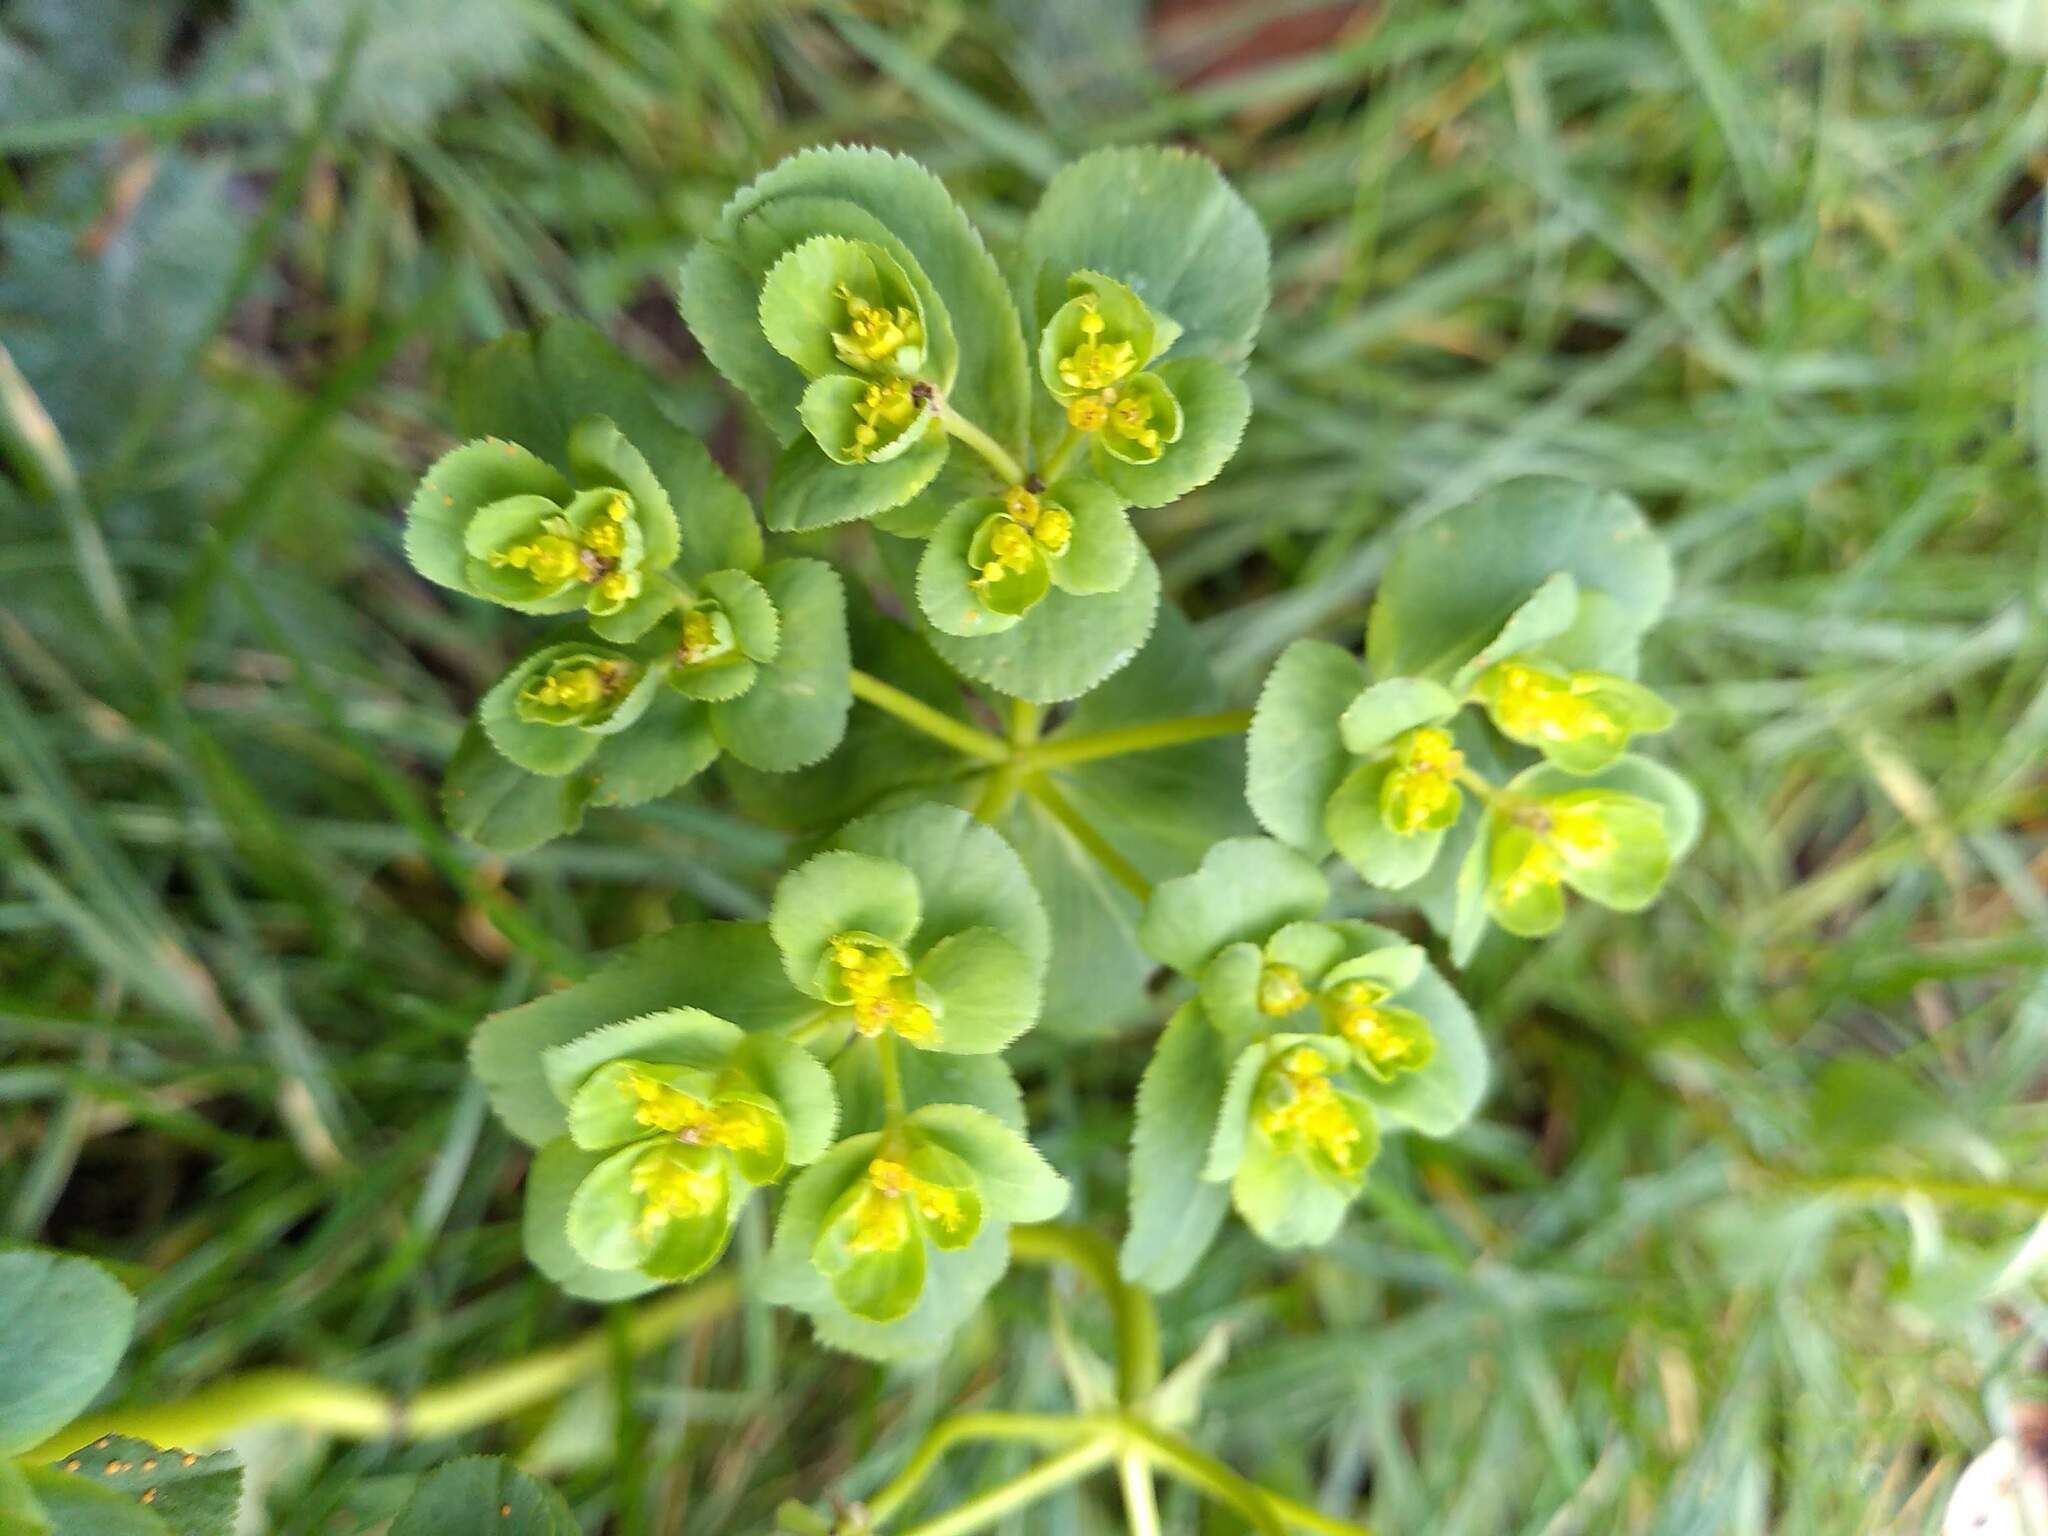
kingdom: Plantae
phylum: Tracheophyta
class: Magnoliopsida
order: Malpighiales
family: Euphorbiaceae
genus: Euphorbia
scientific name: Euphorbia helioscopia
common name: Sun spurge
